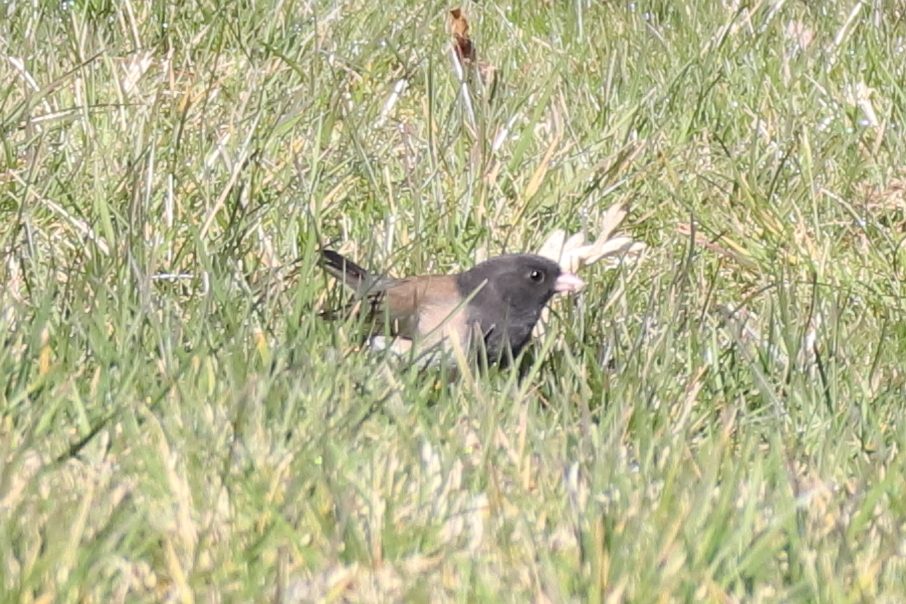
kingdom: Animalia
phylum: Chordata
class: Aves
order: Passeriformes
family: Passerellidae
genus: Junco
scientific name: Junco hyemalis
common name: Dark-eyed junco
